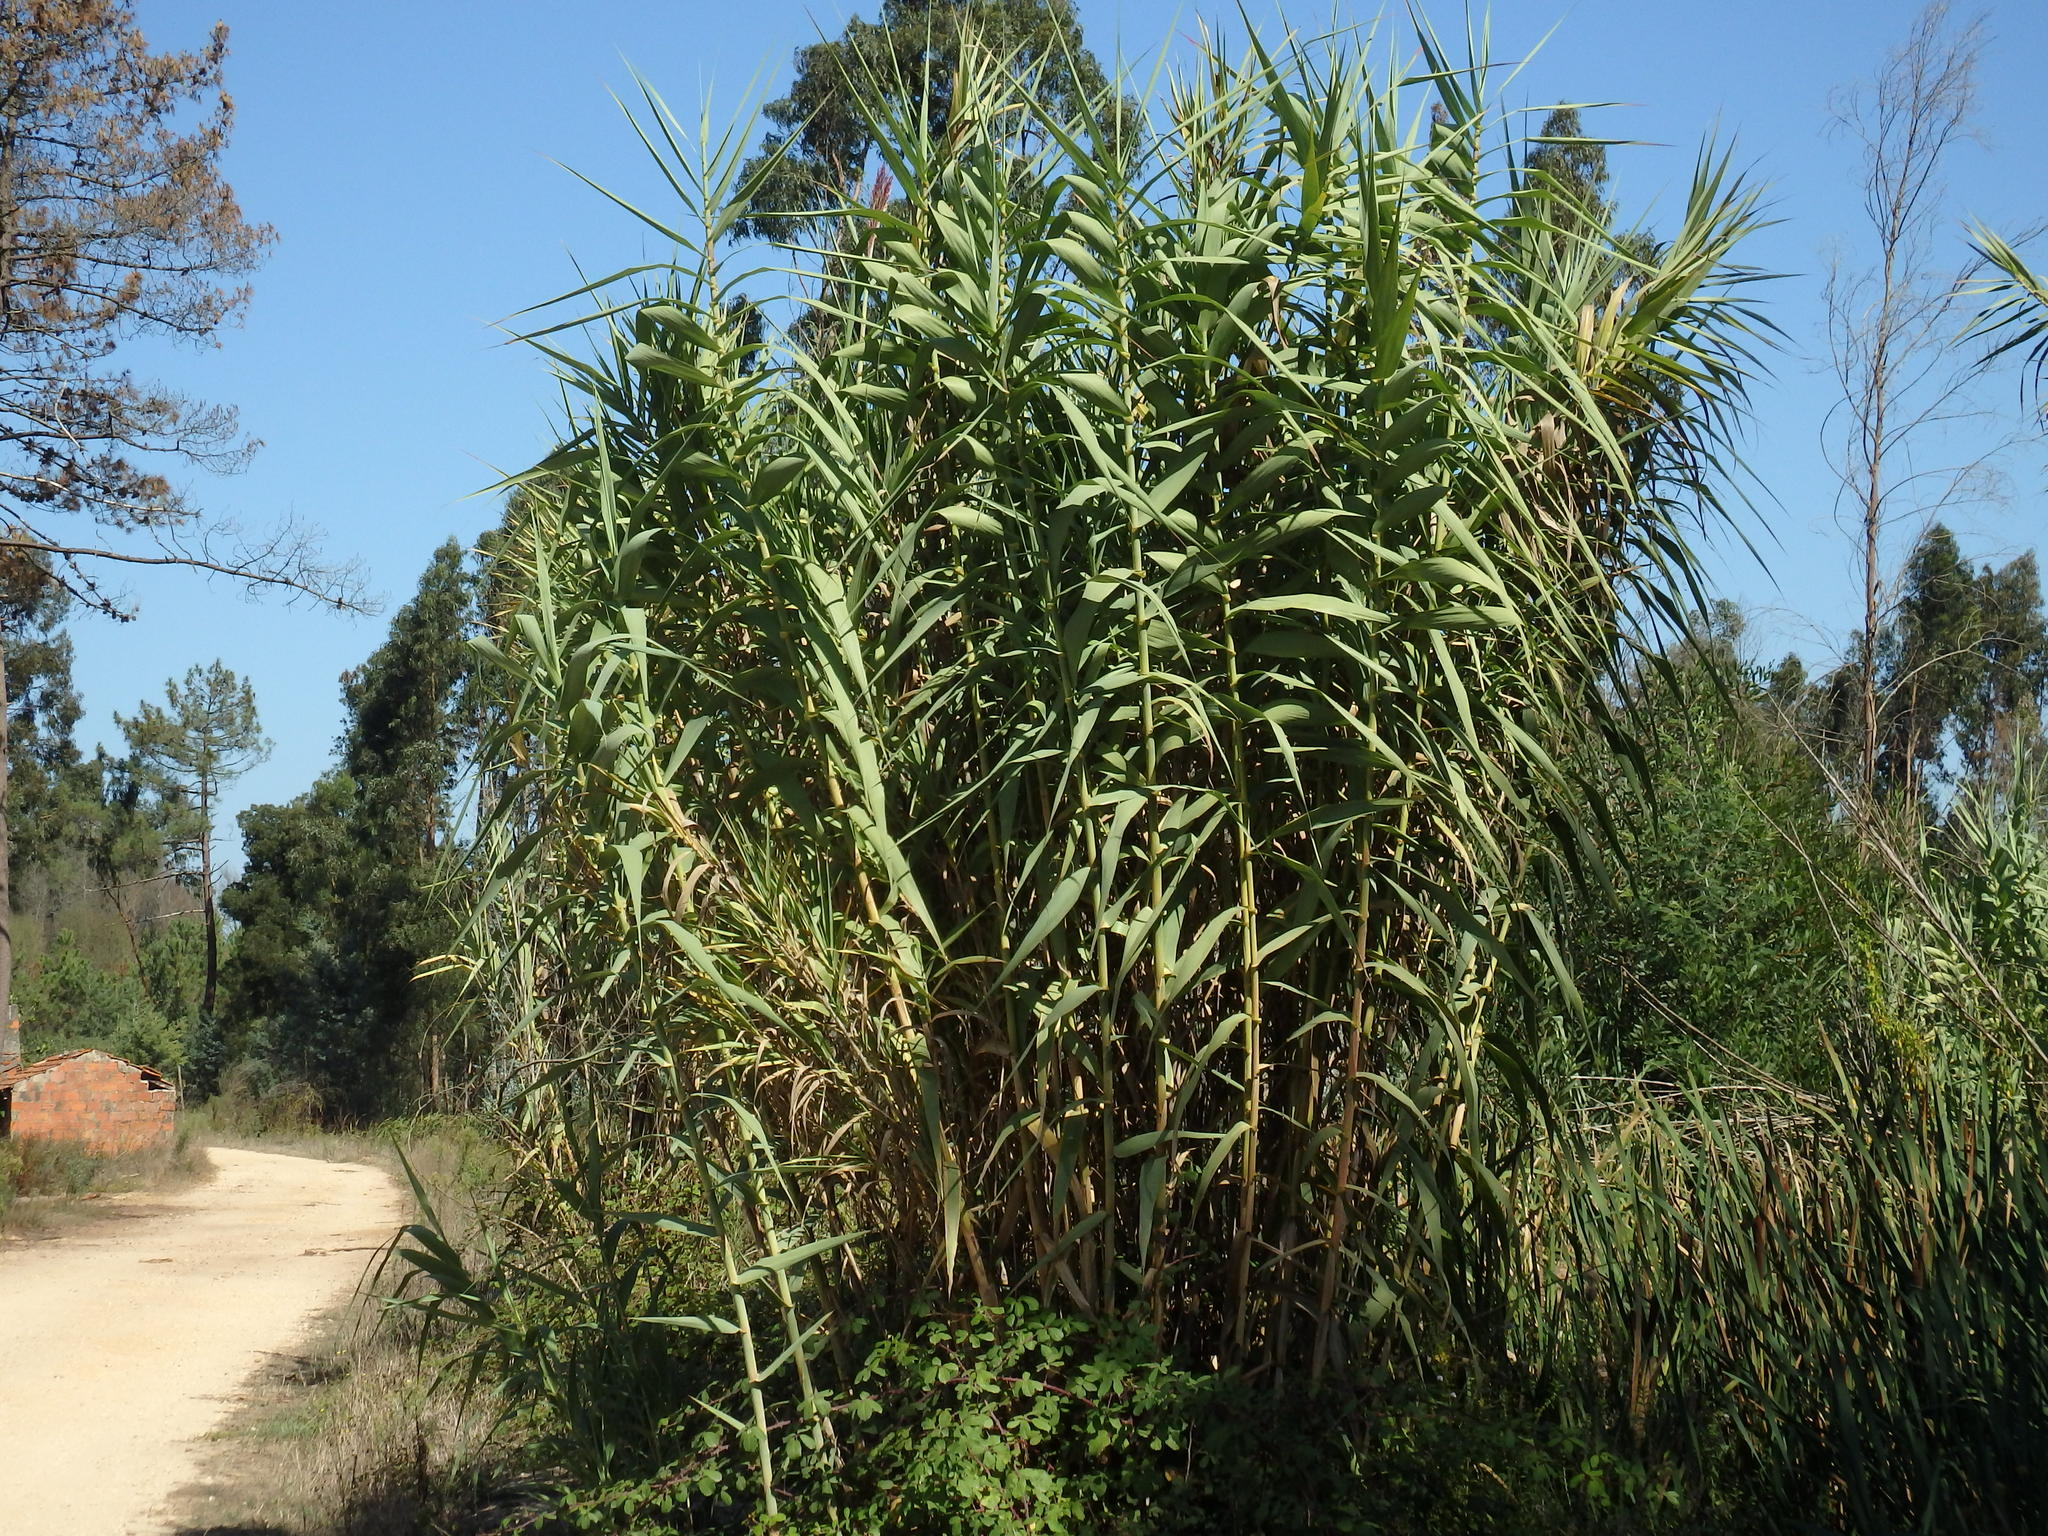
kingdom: Plantae
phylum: Tracheophyta
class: Liliopsida
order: Poales
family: Poaceae
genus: Arundo
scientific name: Arundo donax
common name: Giant reed
